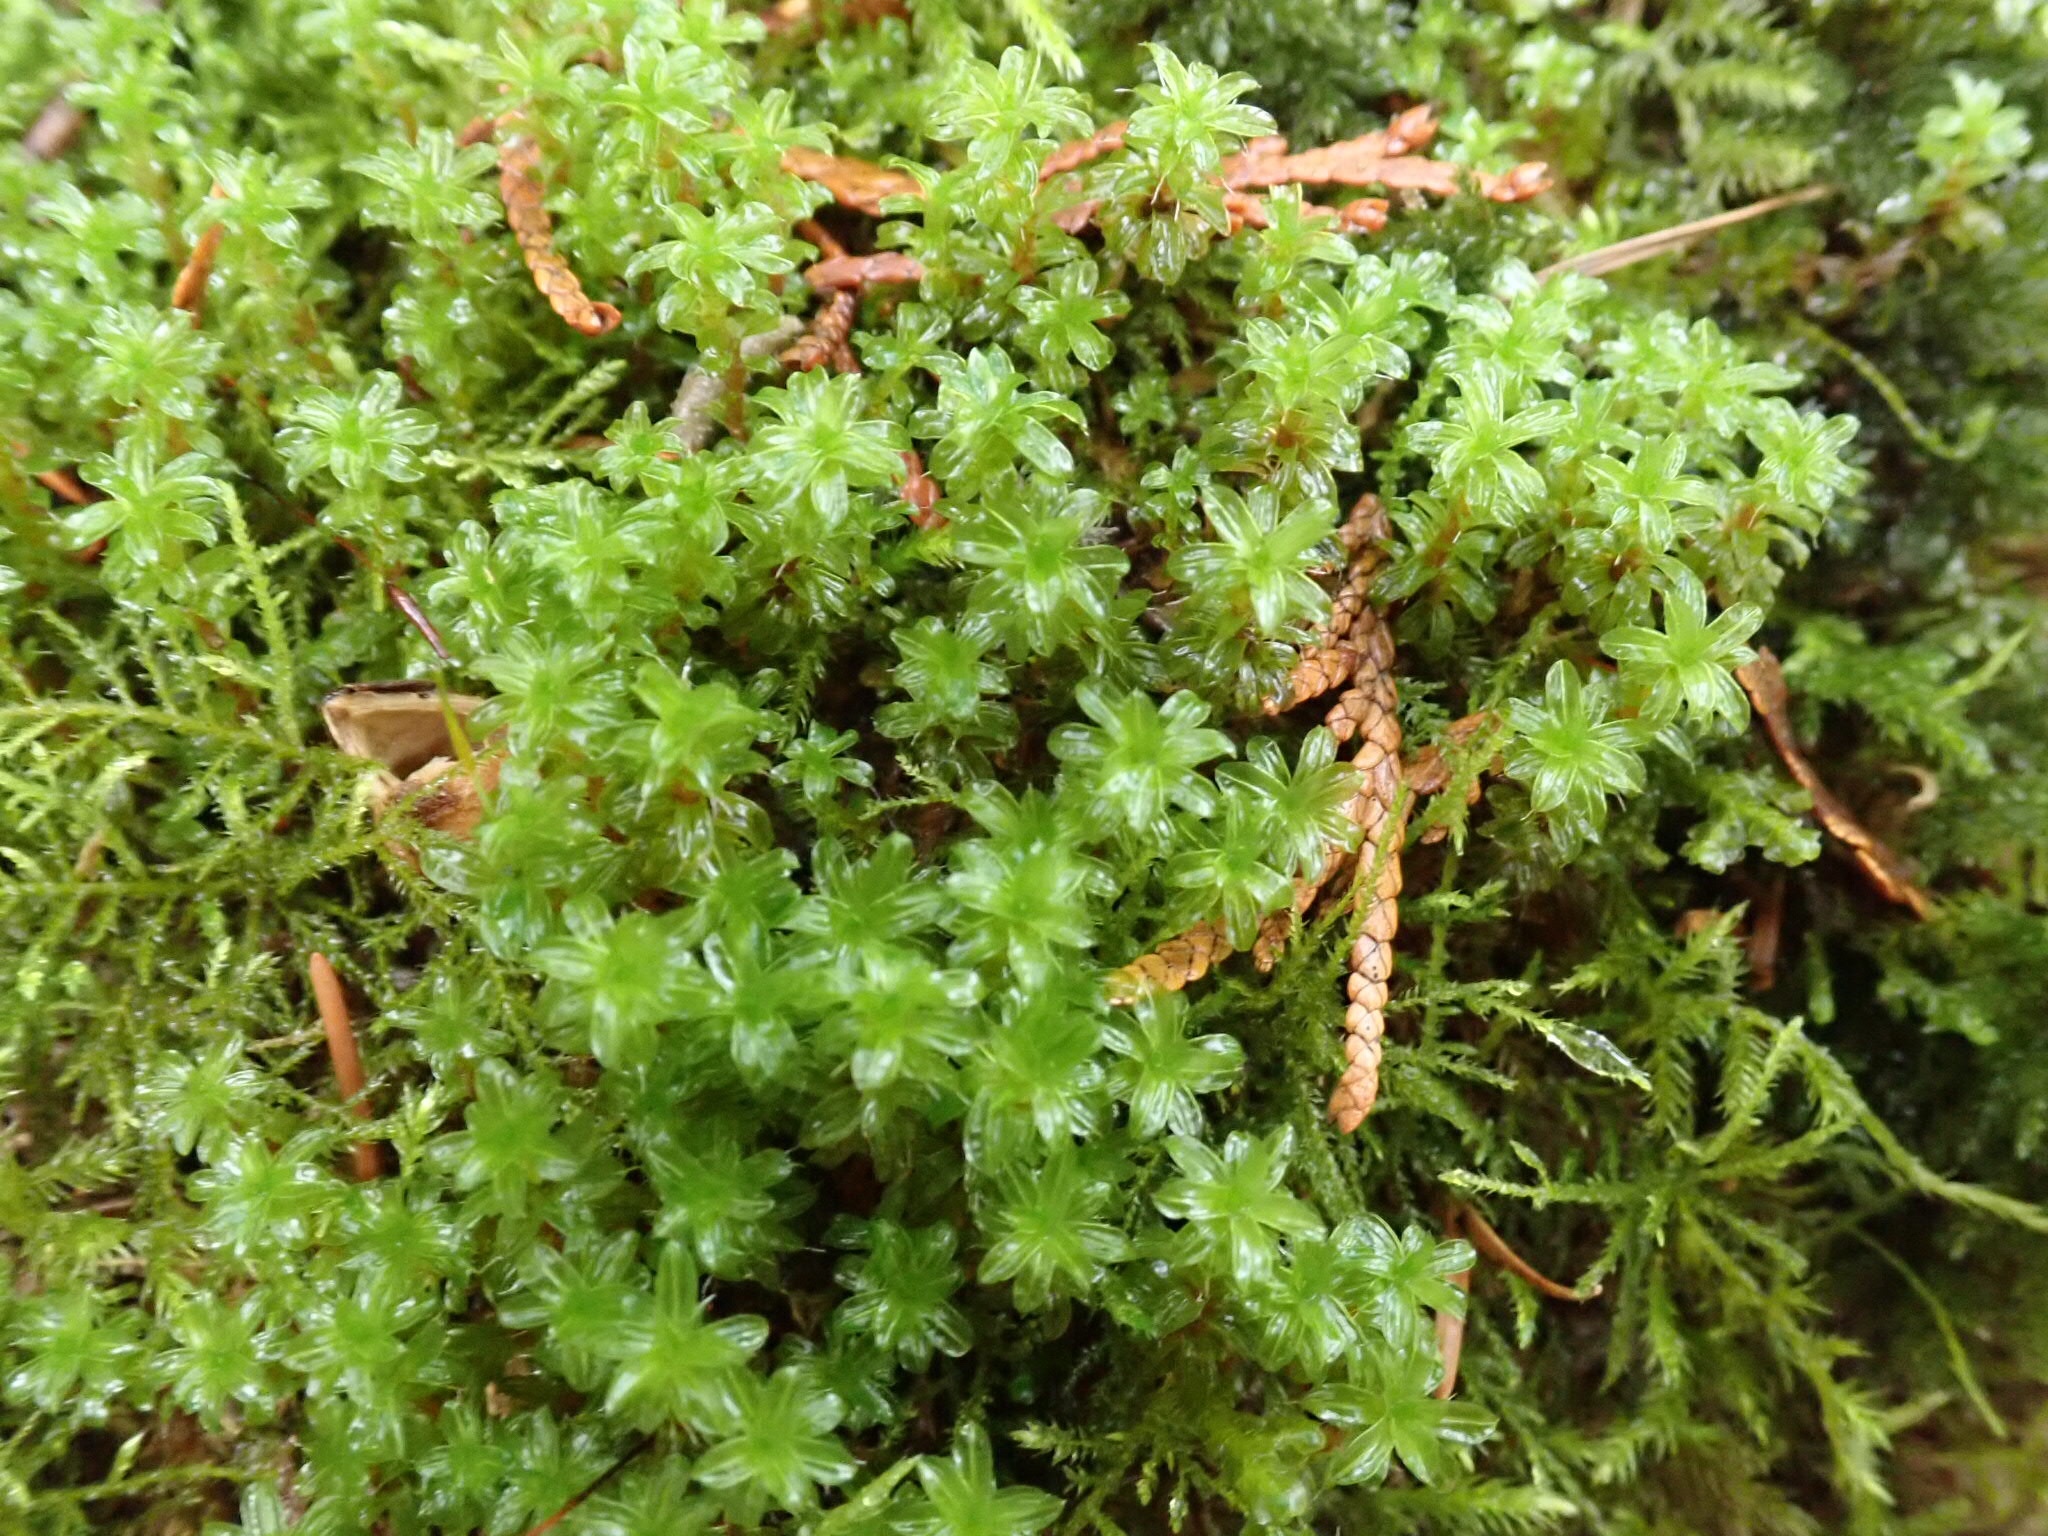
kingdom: Plantae
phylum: Bryophyta
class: Bryopsida
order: Pottiales
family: Pottiaceae
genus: Syntrichia
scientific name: Syntrichia ruralis
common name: Sidewalk screw moss
